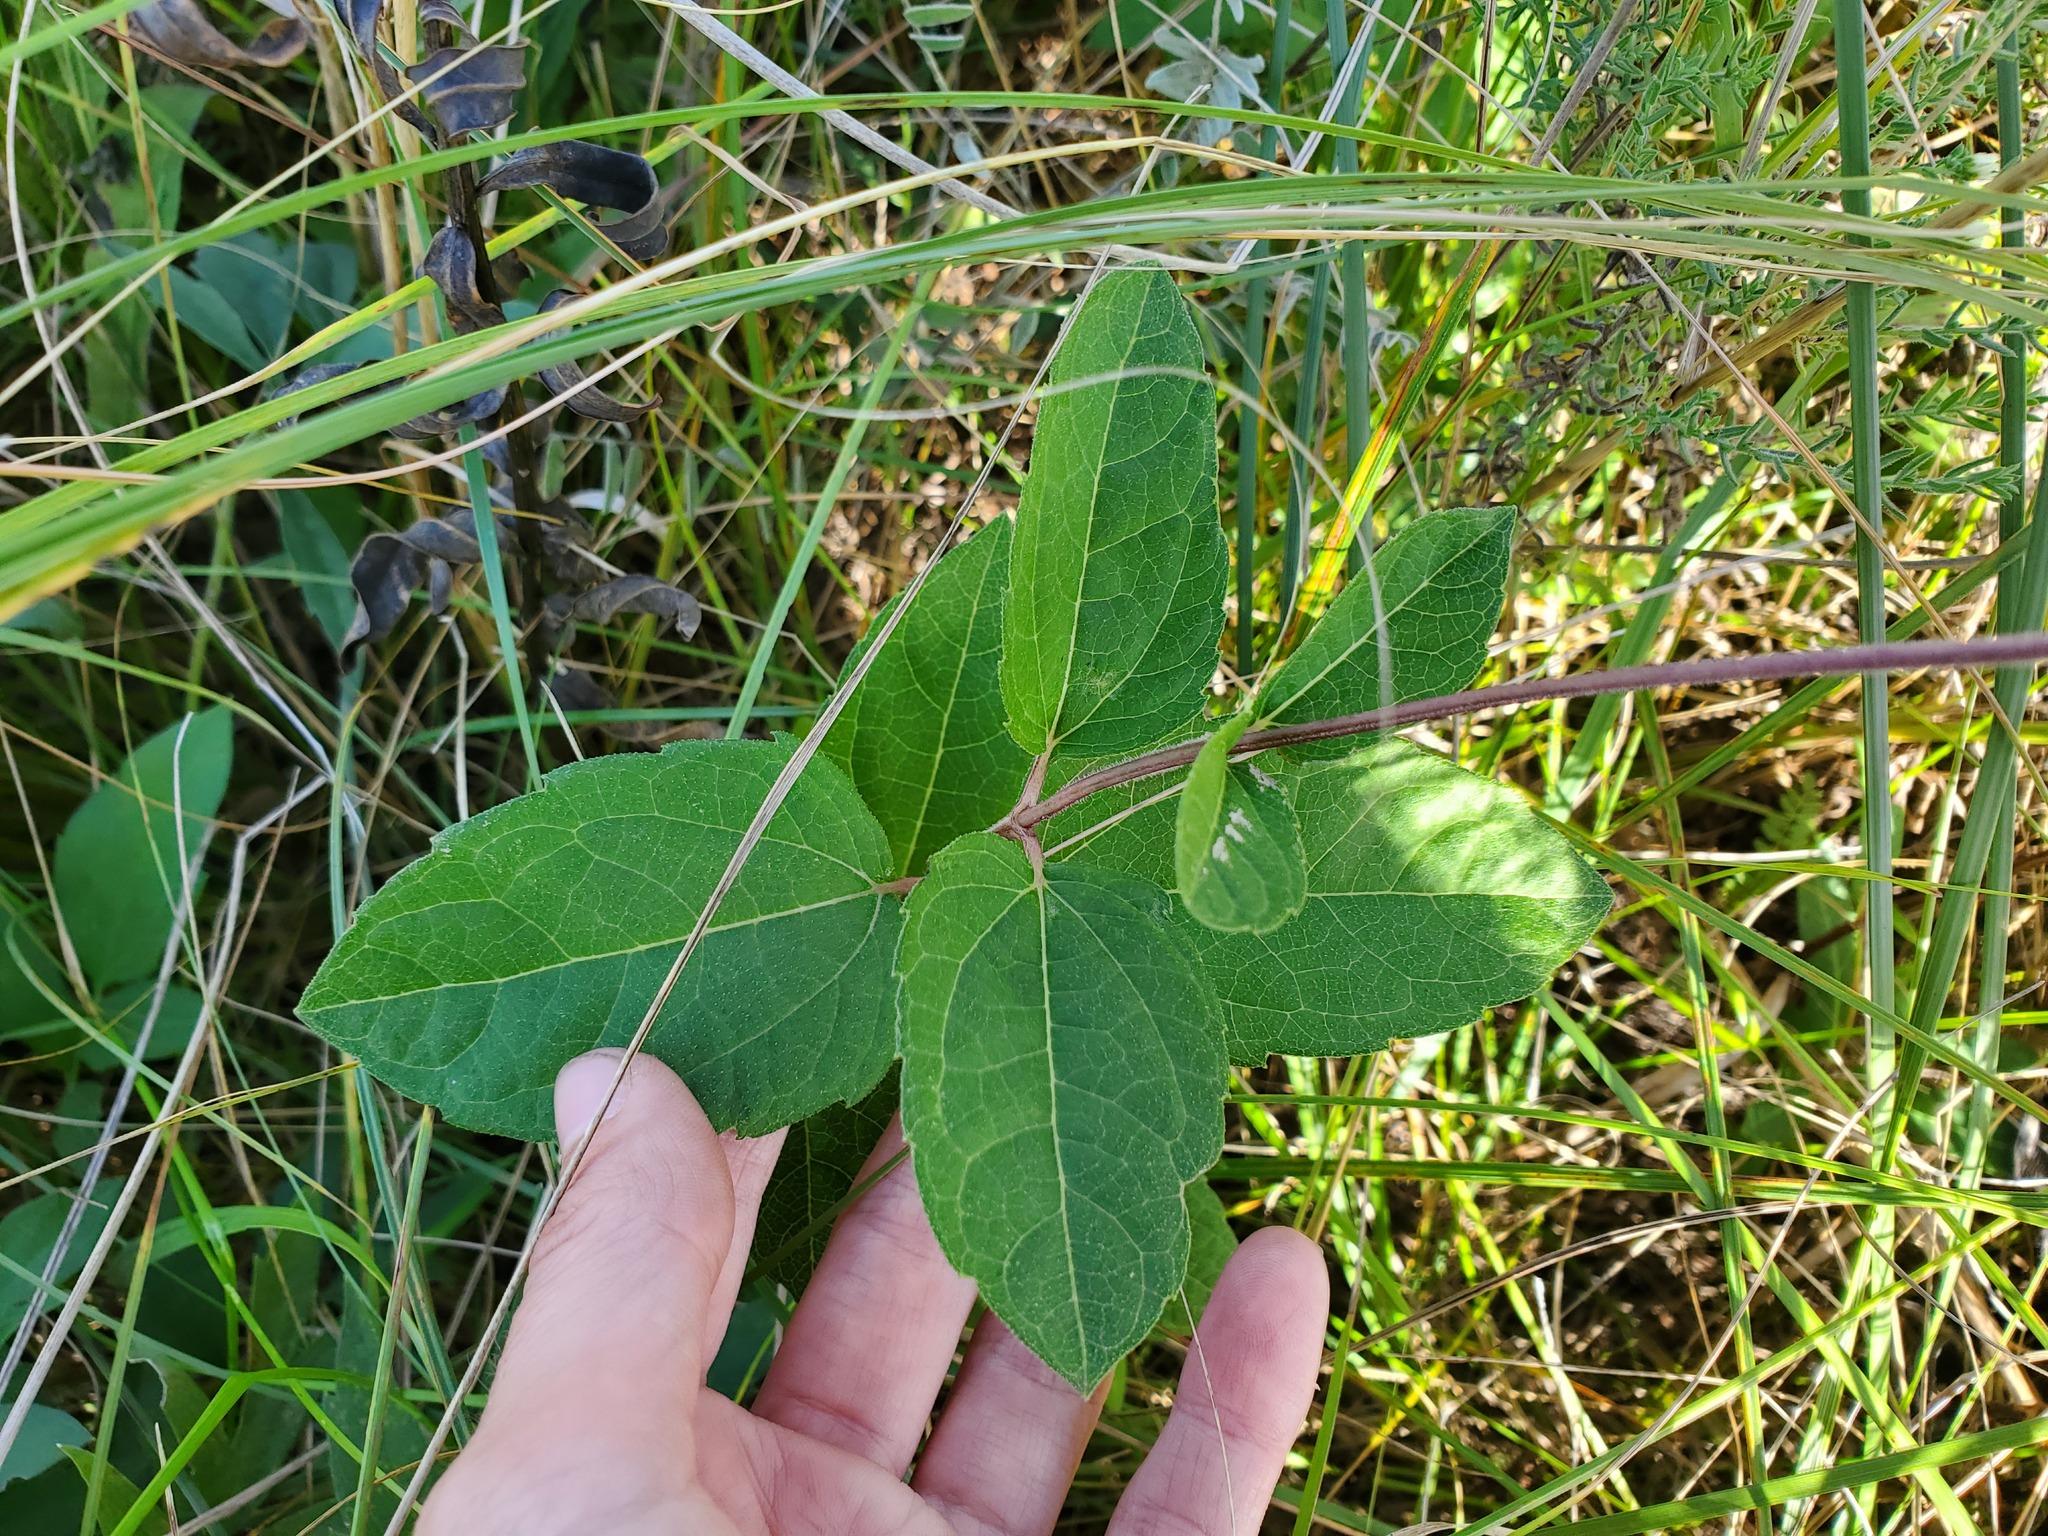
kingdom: Plantae
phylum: Tracheophyta
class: Magnoliopsida
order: Asterales
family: Asteraceae
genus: Heliopsis
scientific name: Heliopsis helianthoides
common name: False sunflower
